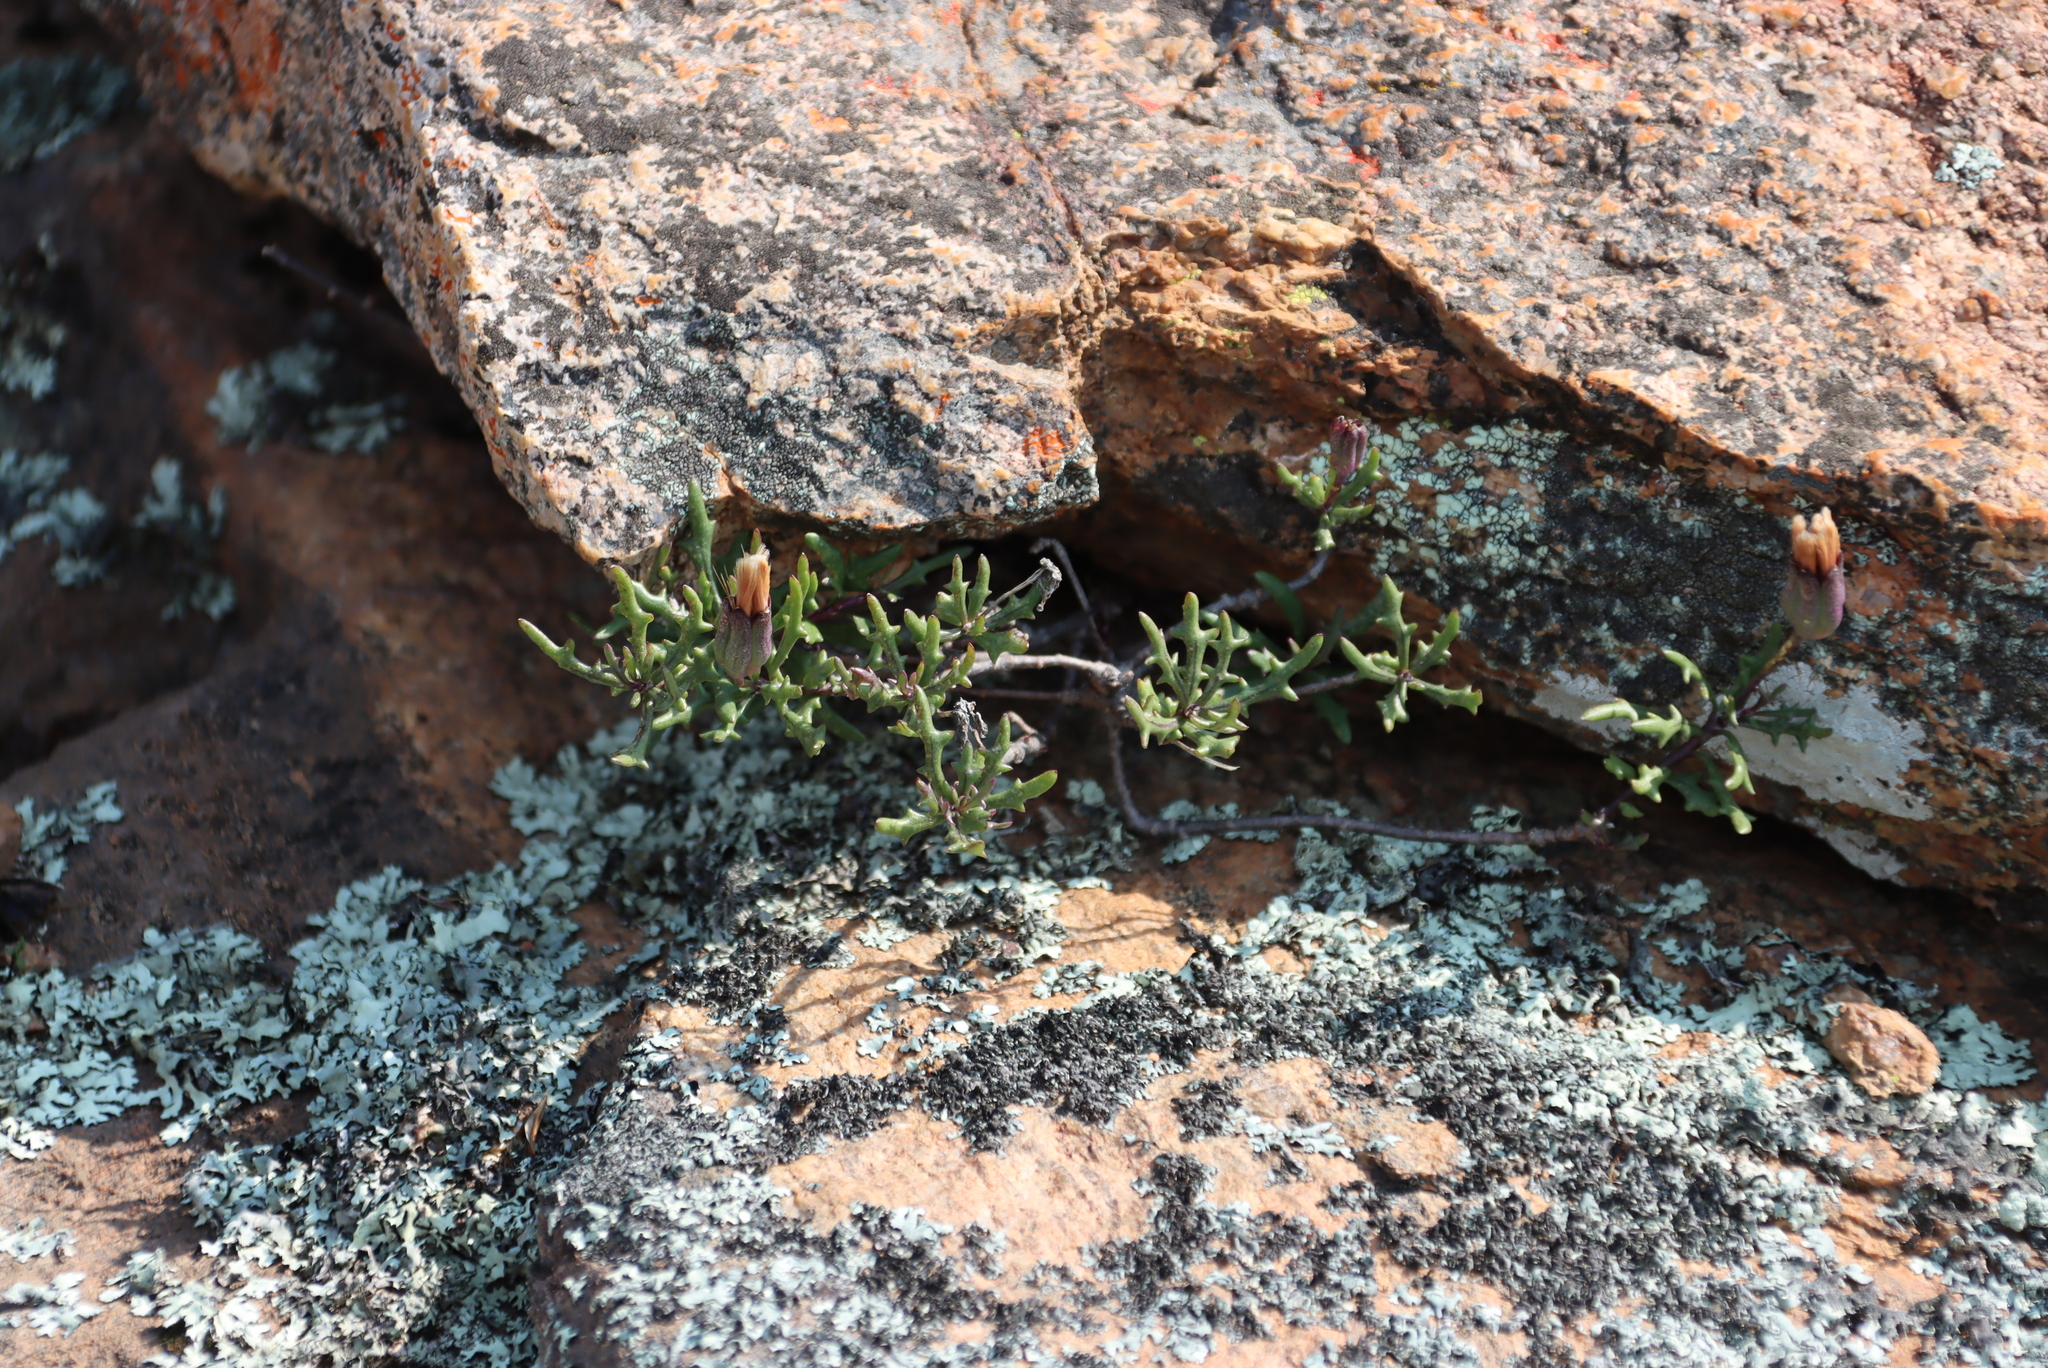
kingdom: Plantae
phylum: Tracheophyta
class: Magnoliopsida
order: Asterales
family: Asteraceae
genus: Othonna
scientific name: Othonna retrofracta
